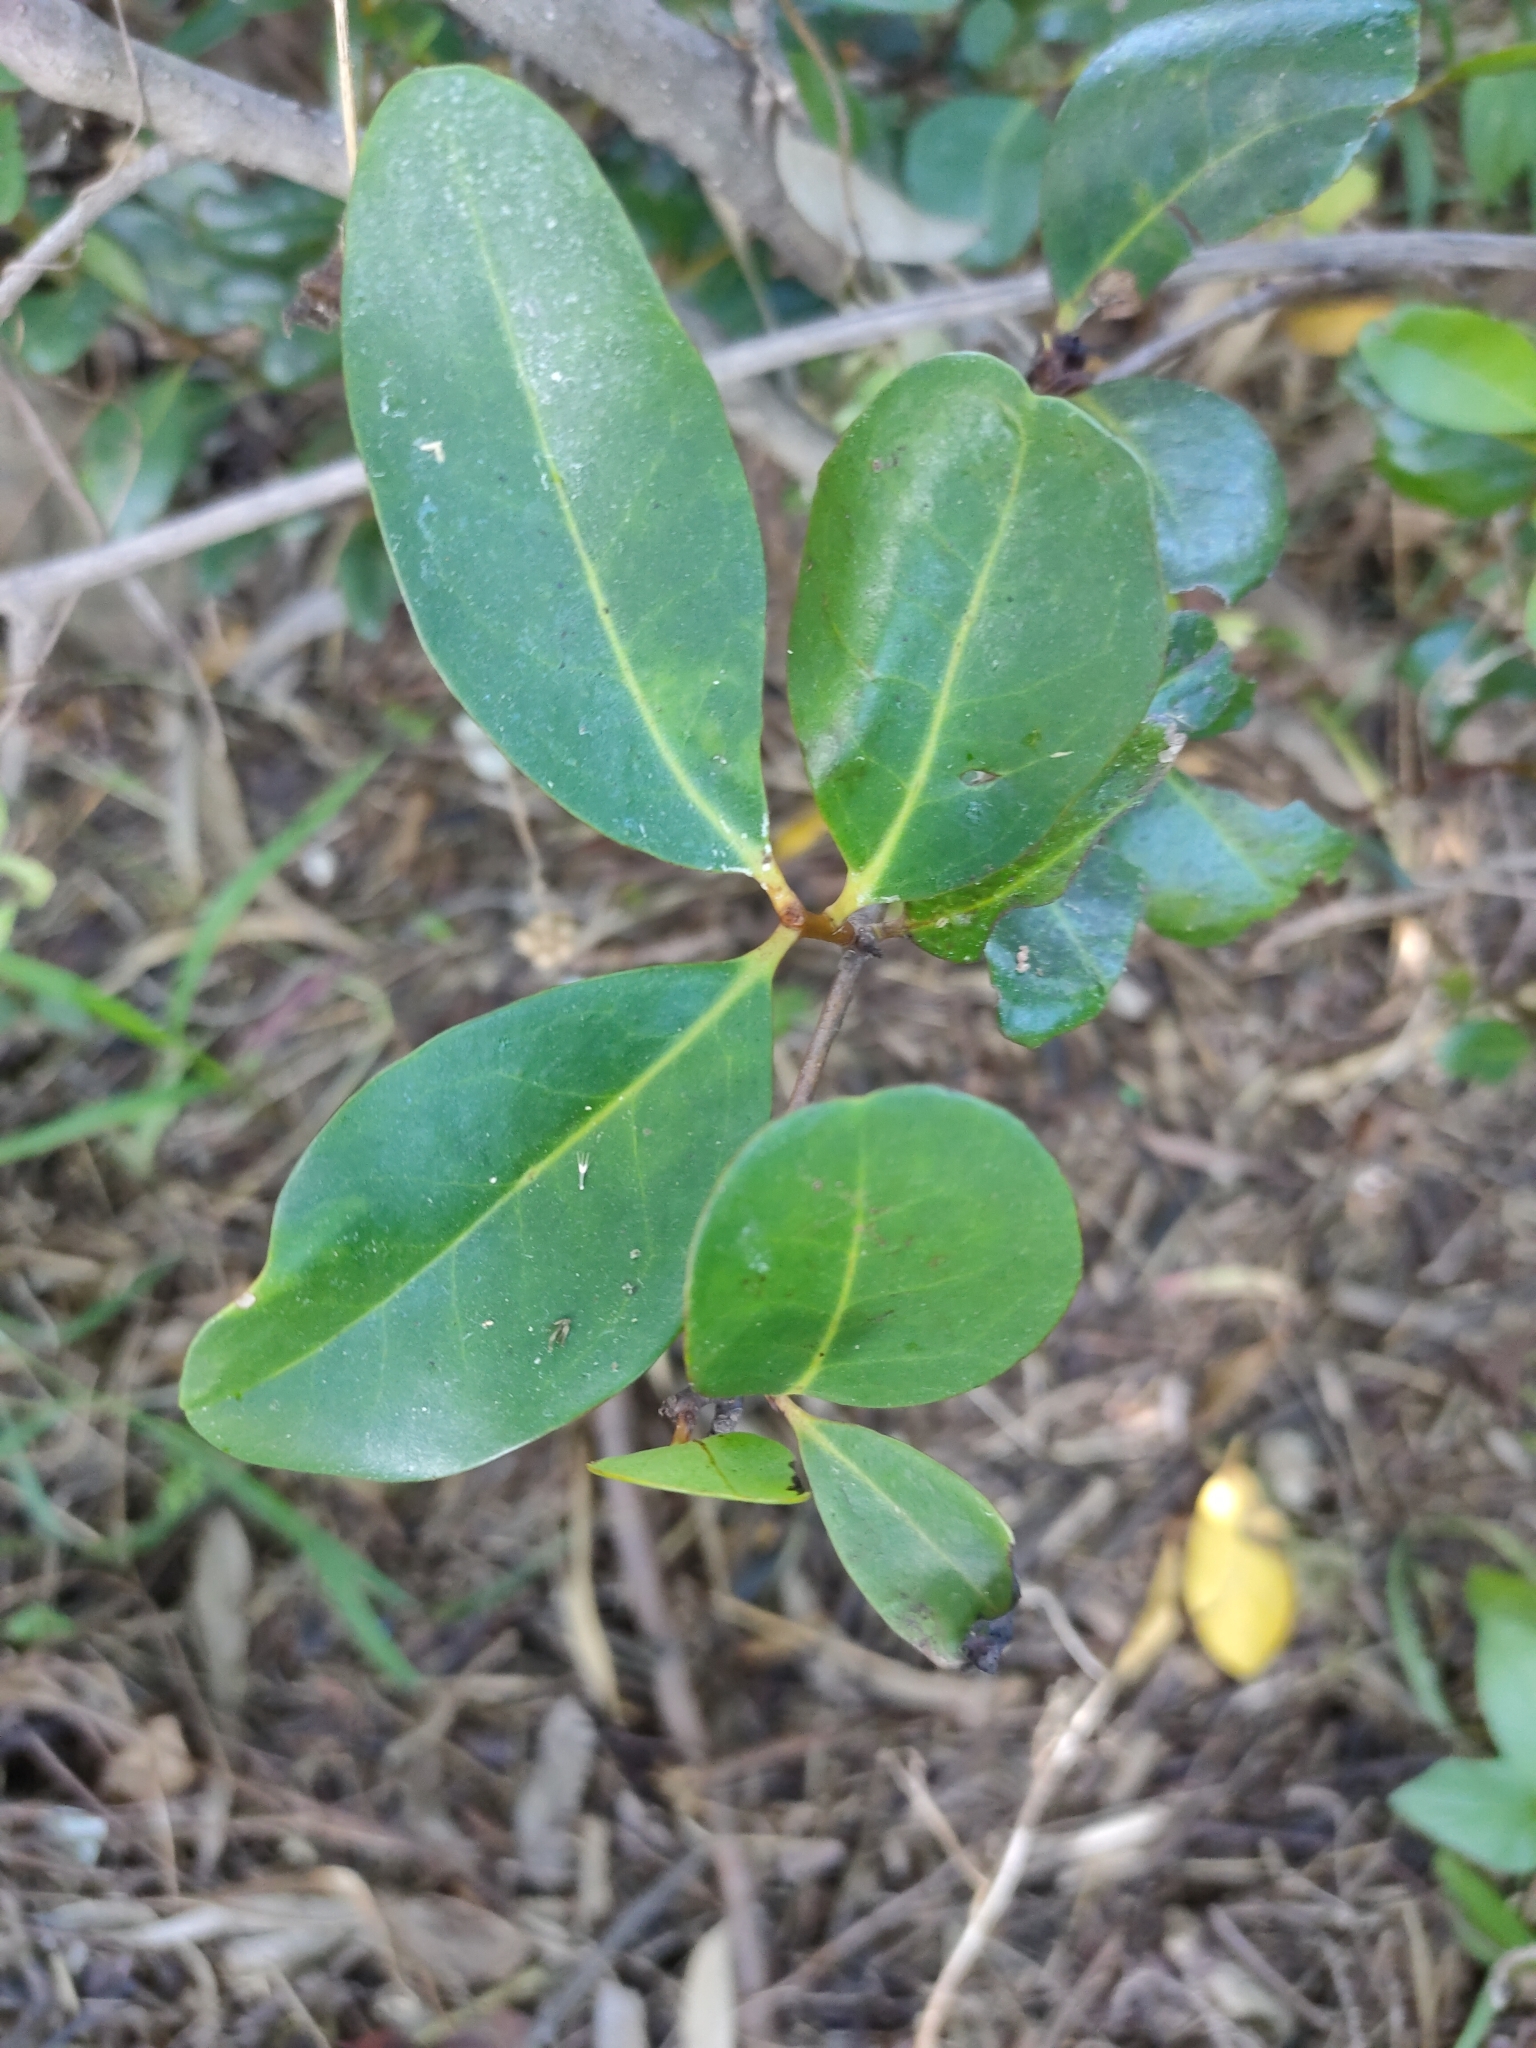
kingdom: Plantae
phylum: Tracheophyta
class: Magnoliopsida
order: Ericales
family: Primulaceae
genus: Aegiceras
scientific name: Aegiceras corniculatum
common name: River mangrove
